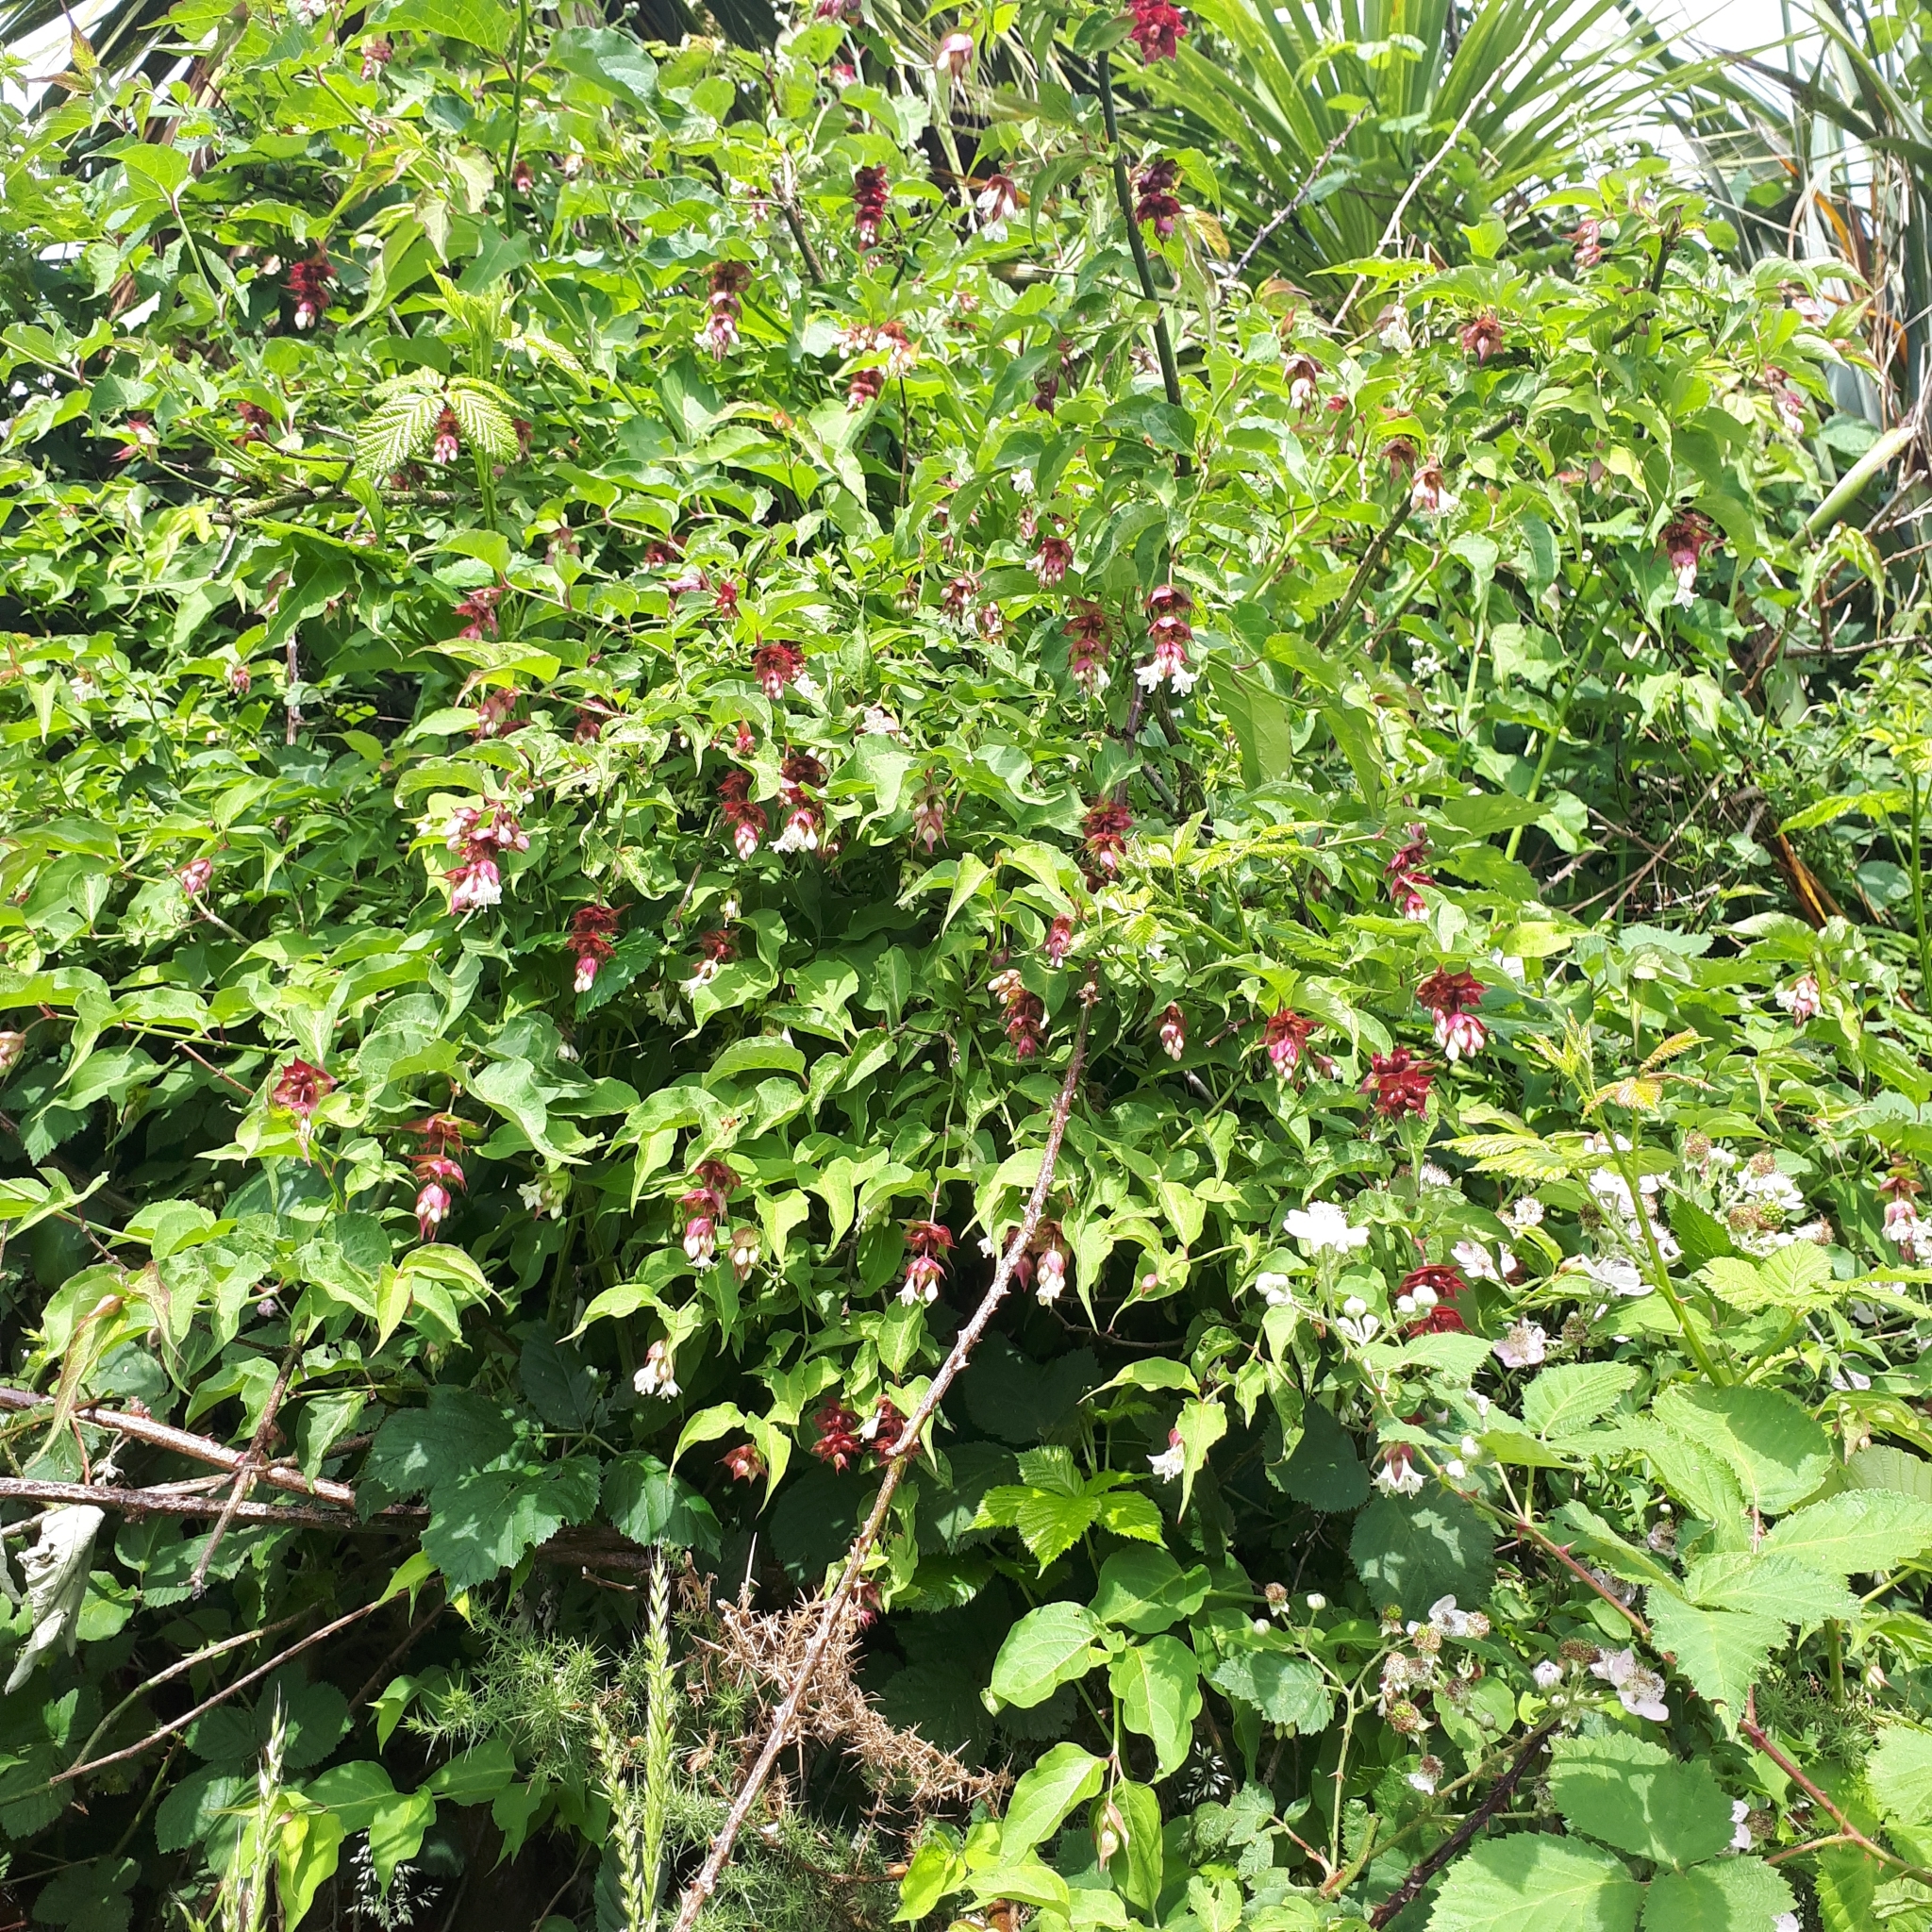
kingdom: Plantae
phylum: Tracheophyta
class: Magnoliopsida
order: Dipsacales
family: Caprifoliaceae
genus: Leycesteria
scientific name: Leycesteria formosa
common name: Himalayan honeysuckle
